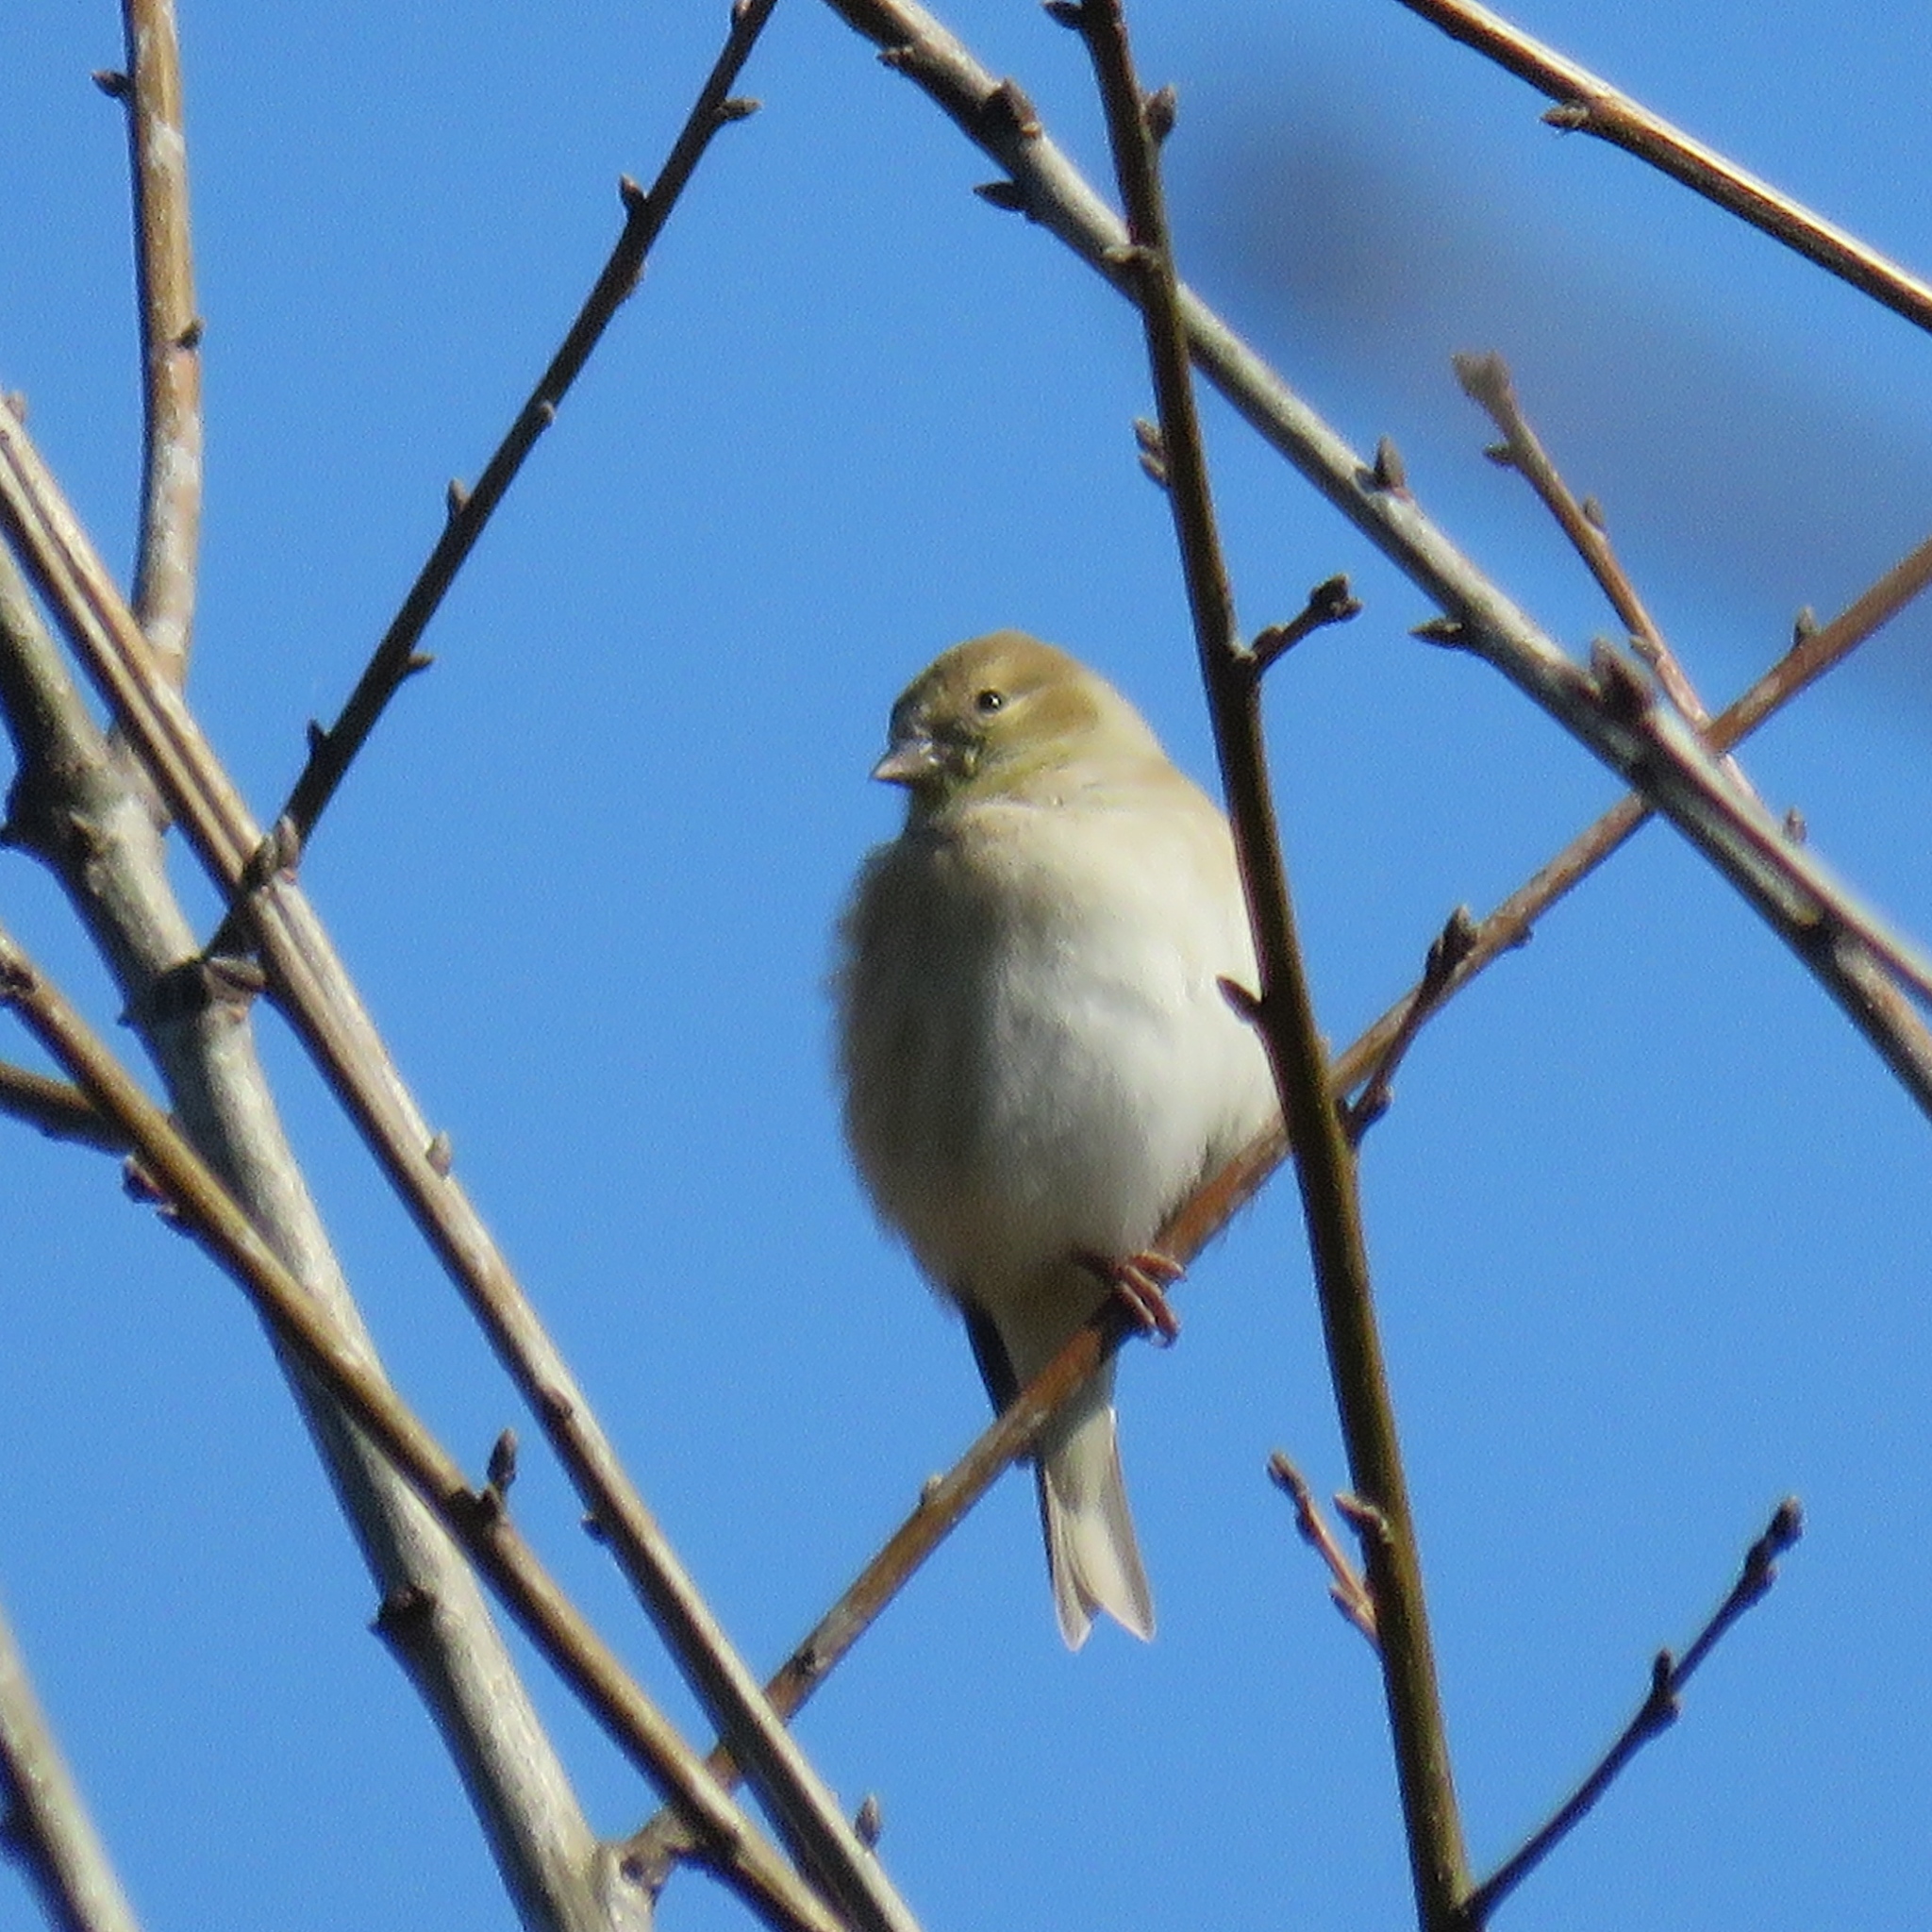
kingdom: Animalia
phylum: Chordata
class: Aves
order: Passeriformes
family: Fringillidae
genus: Spinus
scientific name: Spinus tristis
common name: American goldfinch
